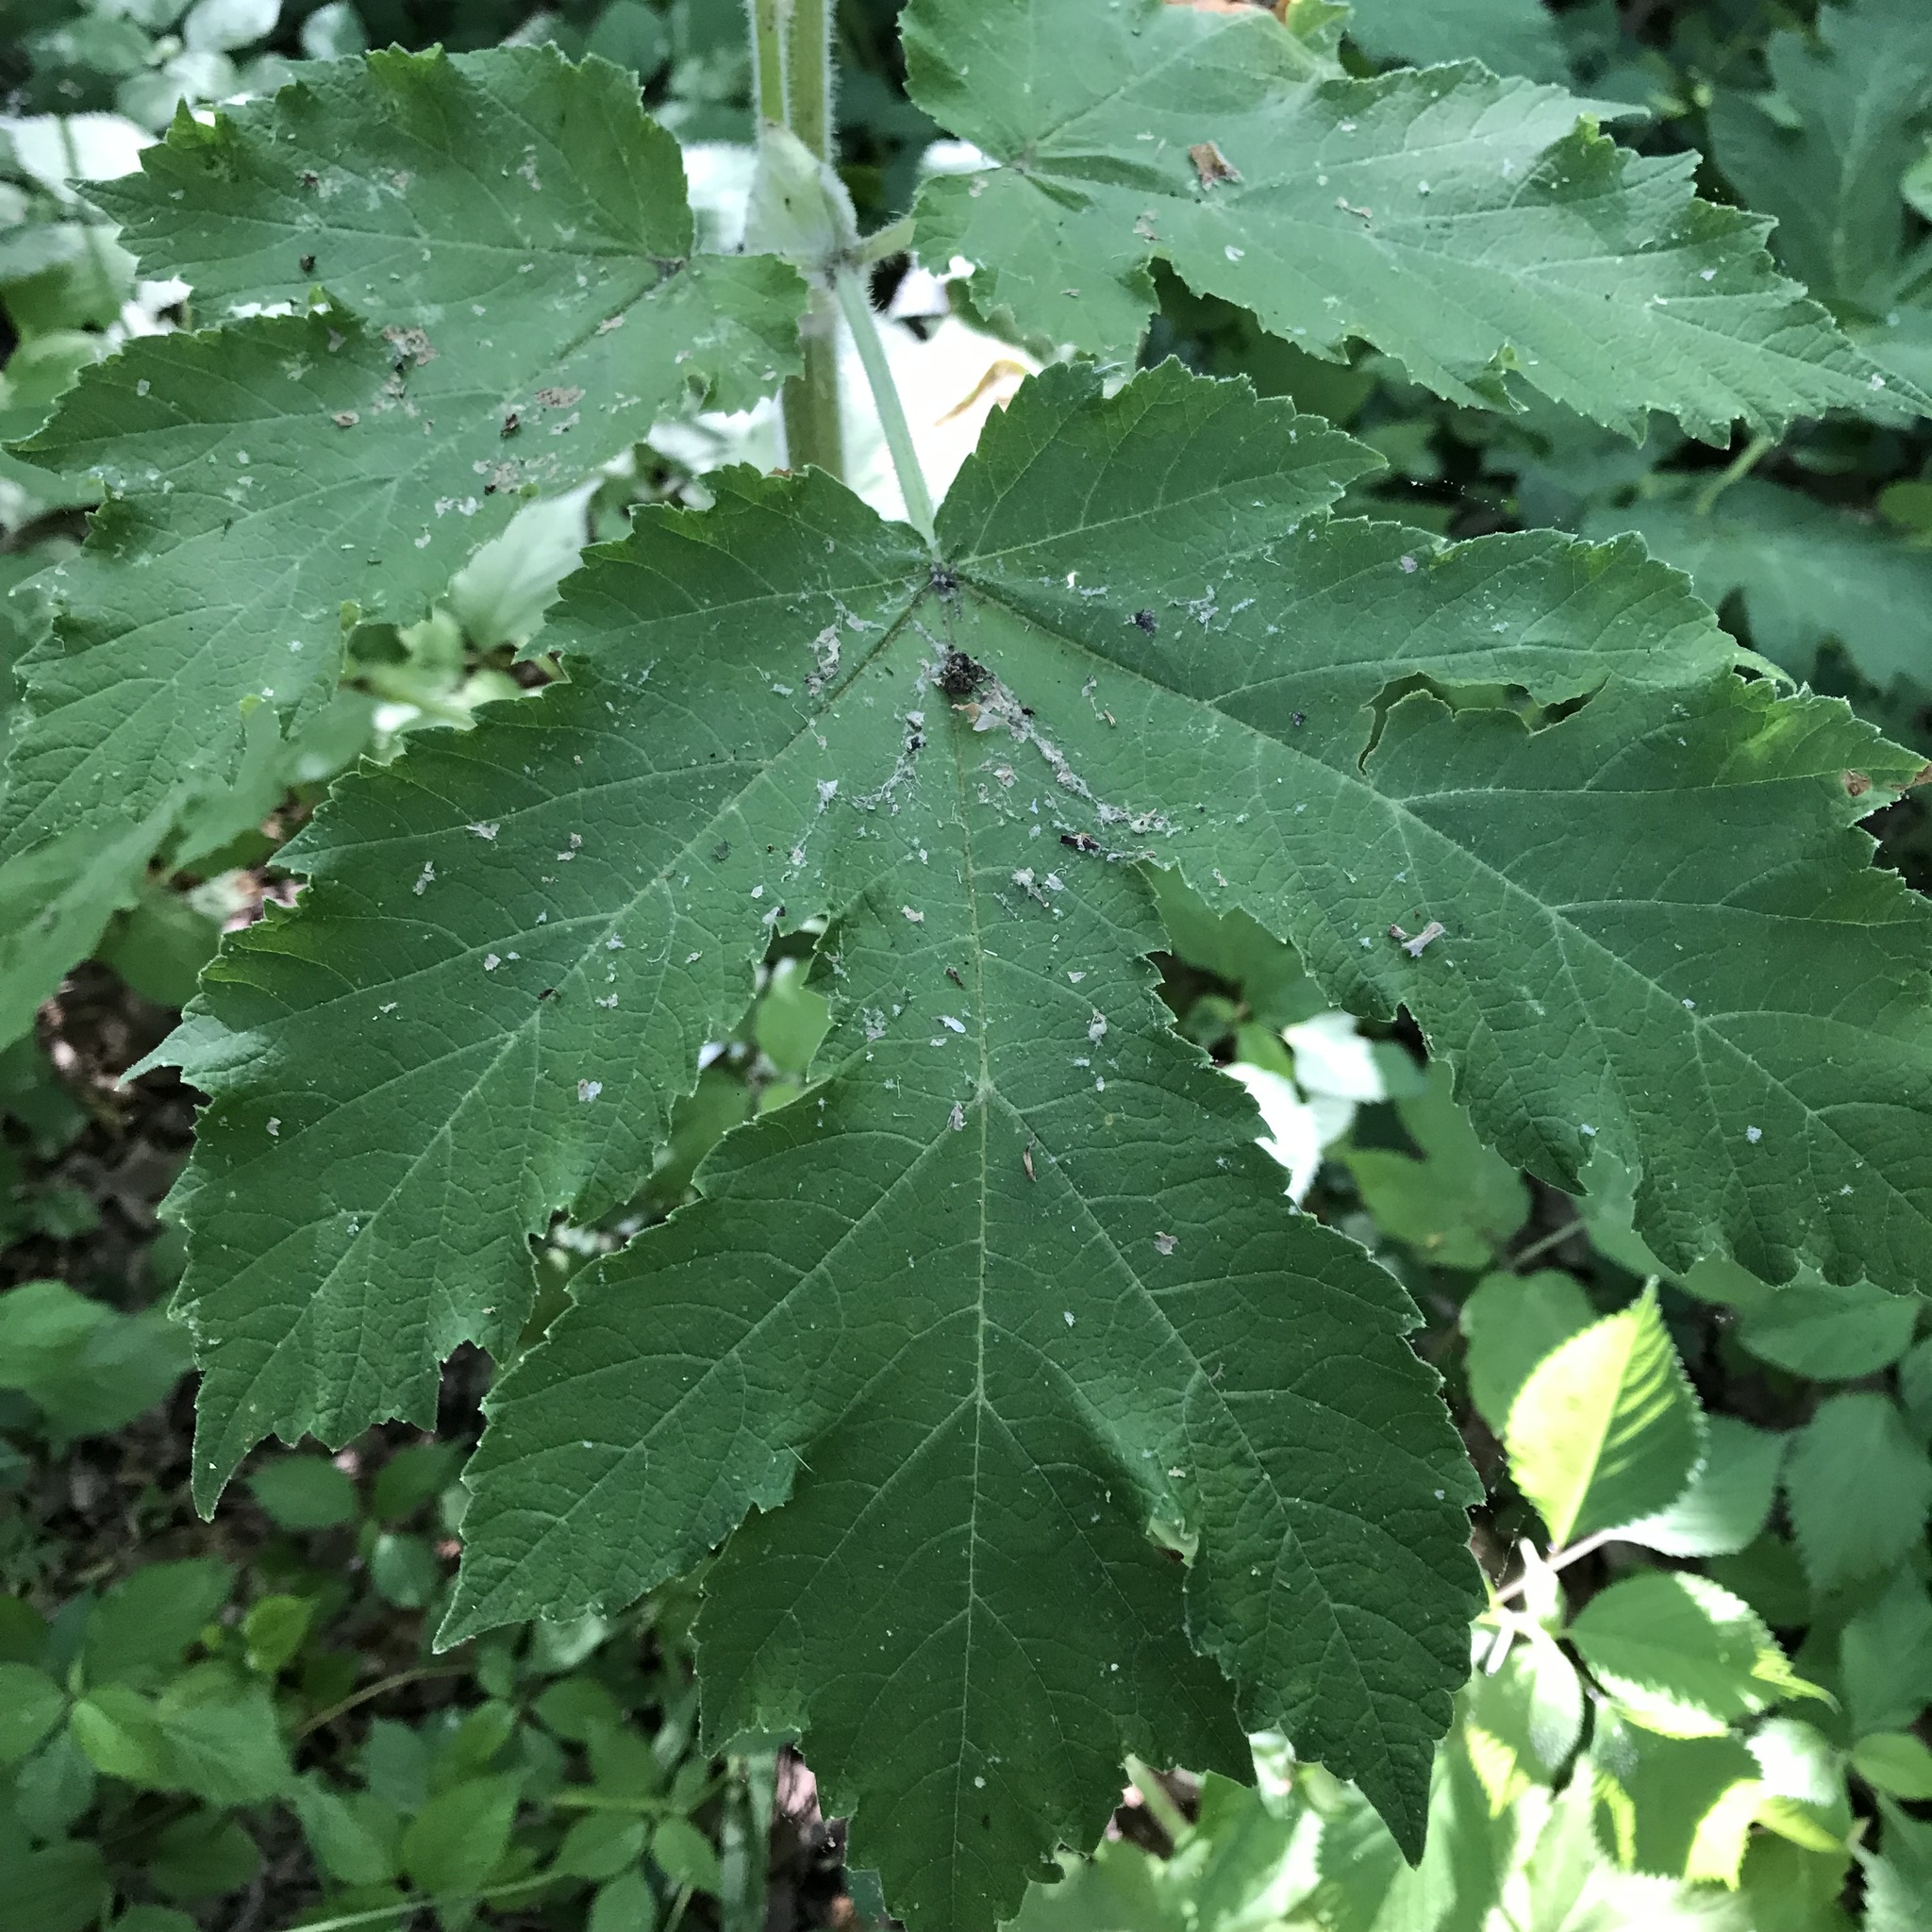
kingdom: Plantae
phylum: Tracheophyta
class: Magnoliopsida
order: Apiales
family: Apiaceae
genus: Heracleum
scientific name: Heracleum maximum
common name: American cow parsnip
